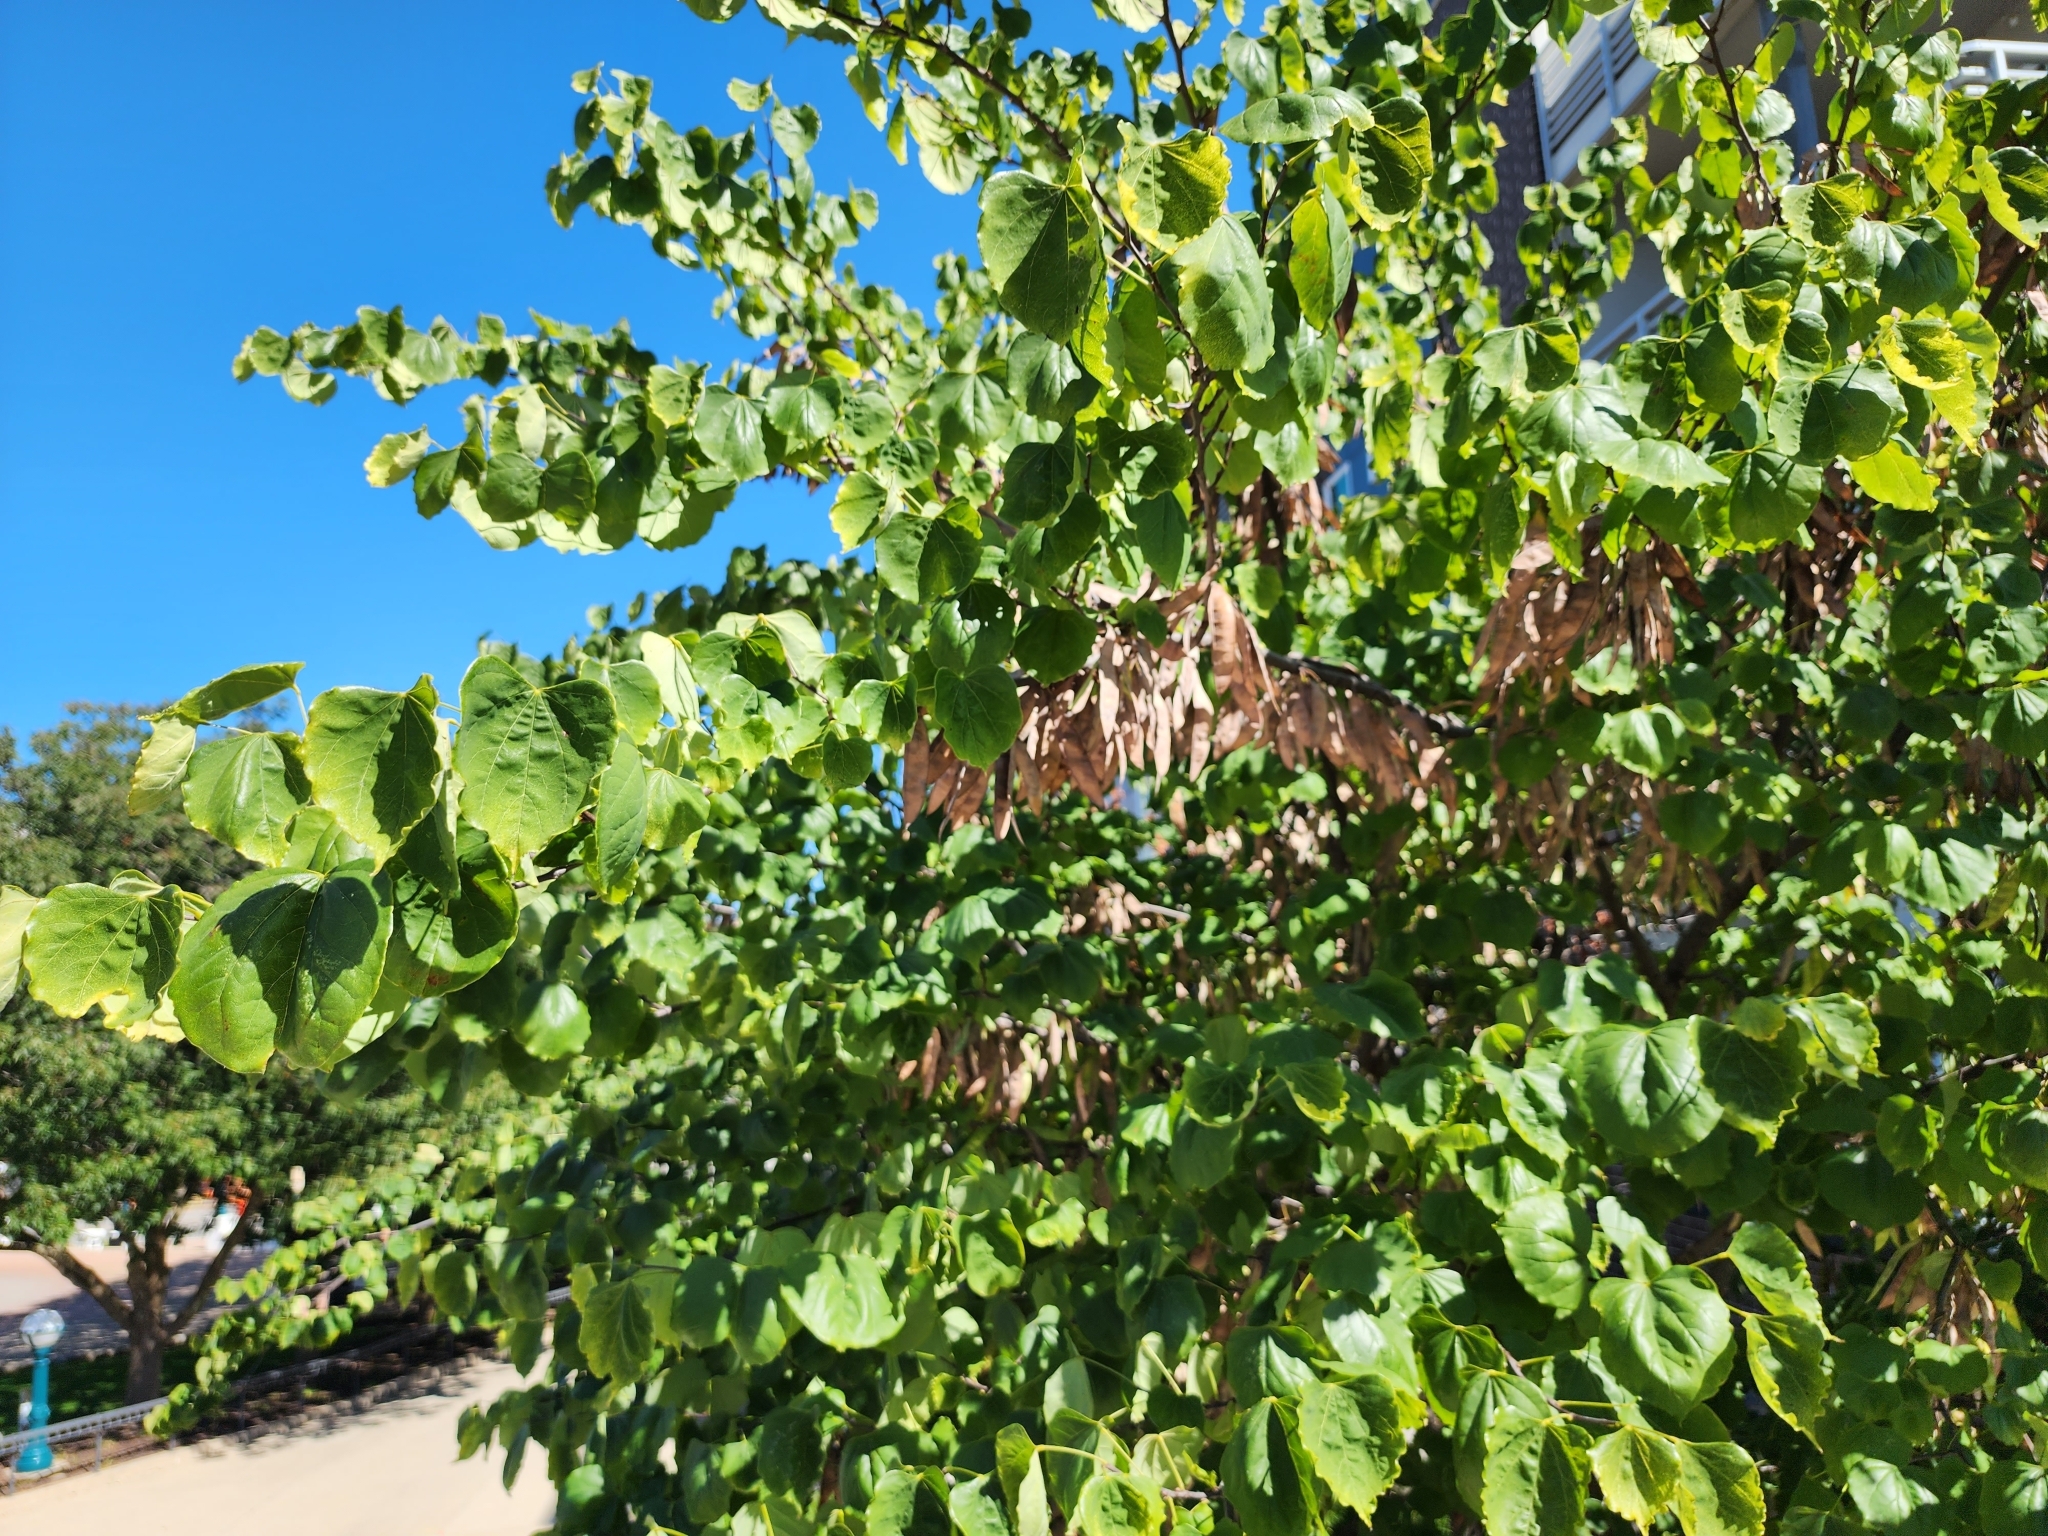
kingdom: Plantae
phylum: Tracheophyta
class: Magnoliopsida
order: Fabales
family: Fabaceae
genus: Cercis
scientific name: Cercis canadensis
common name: Eastern redbud
